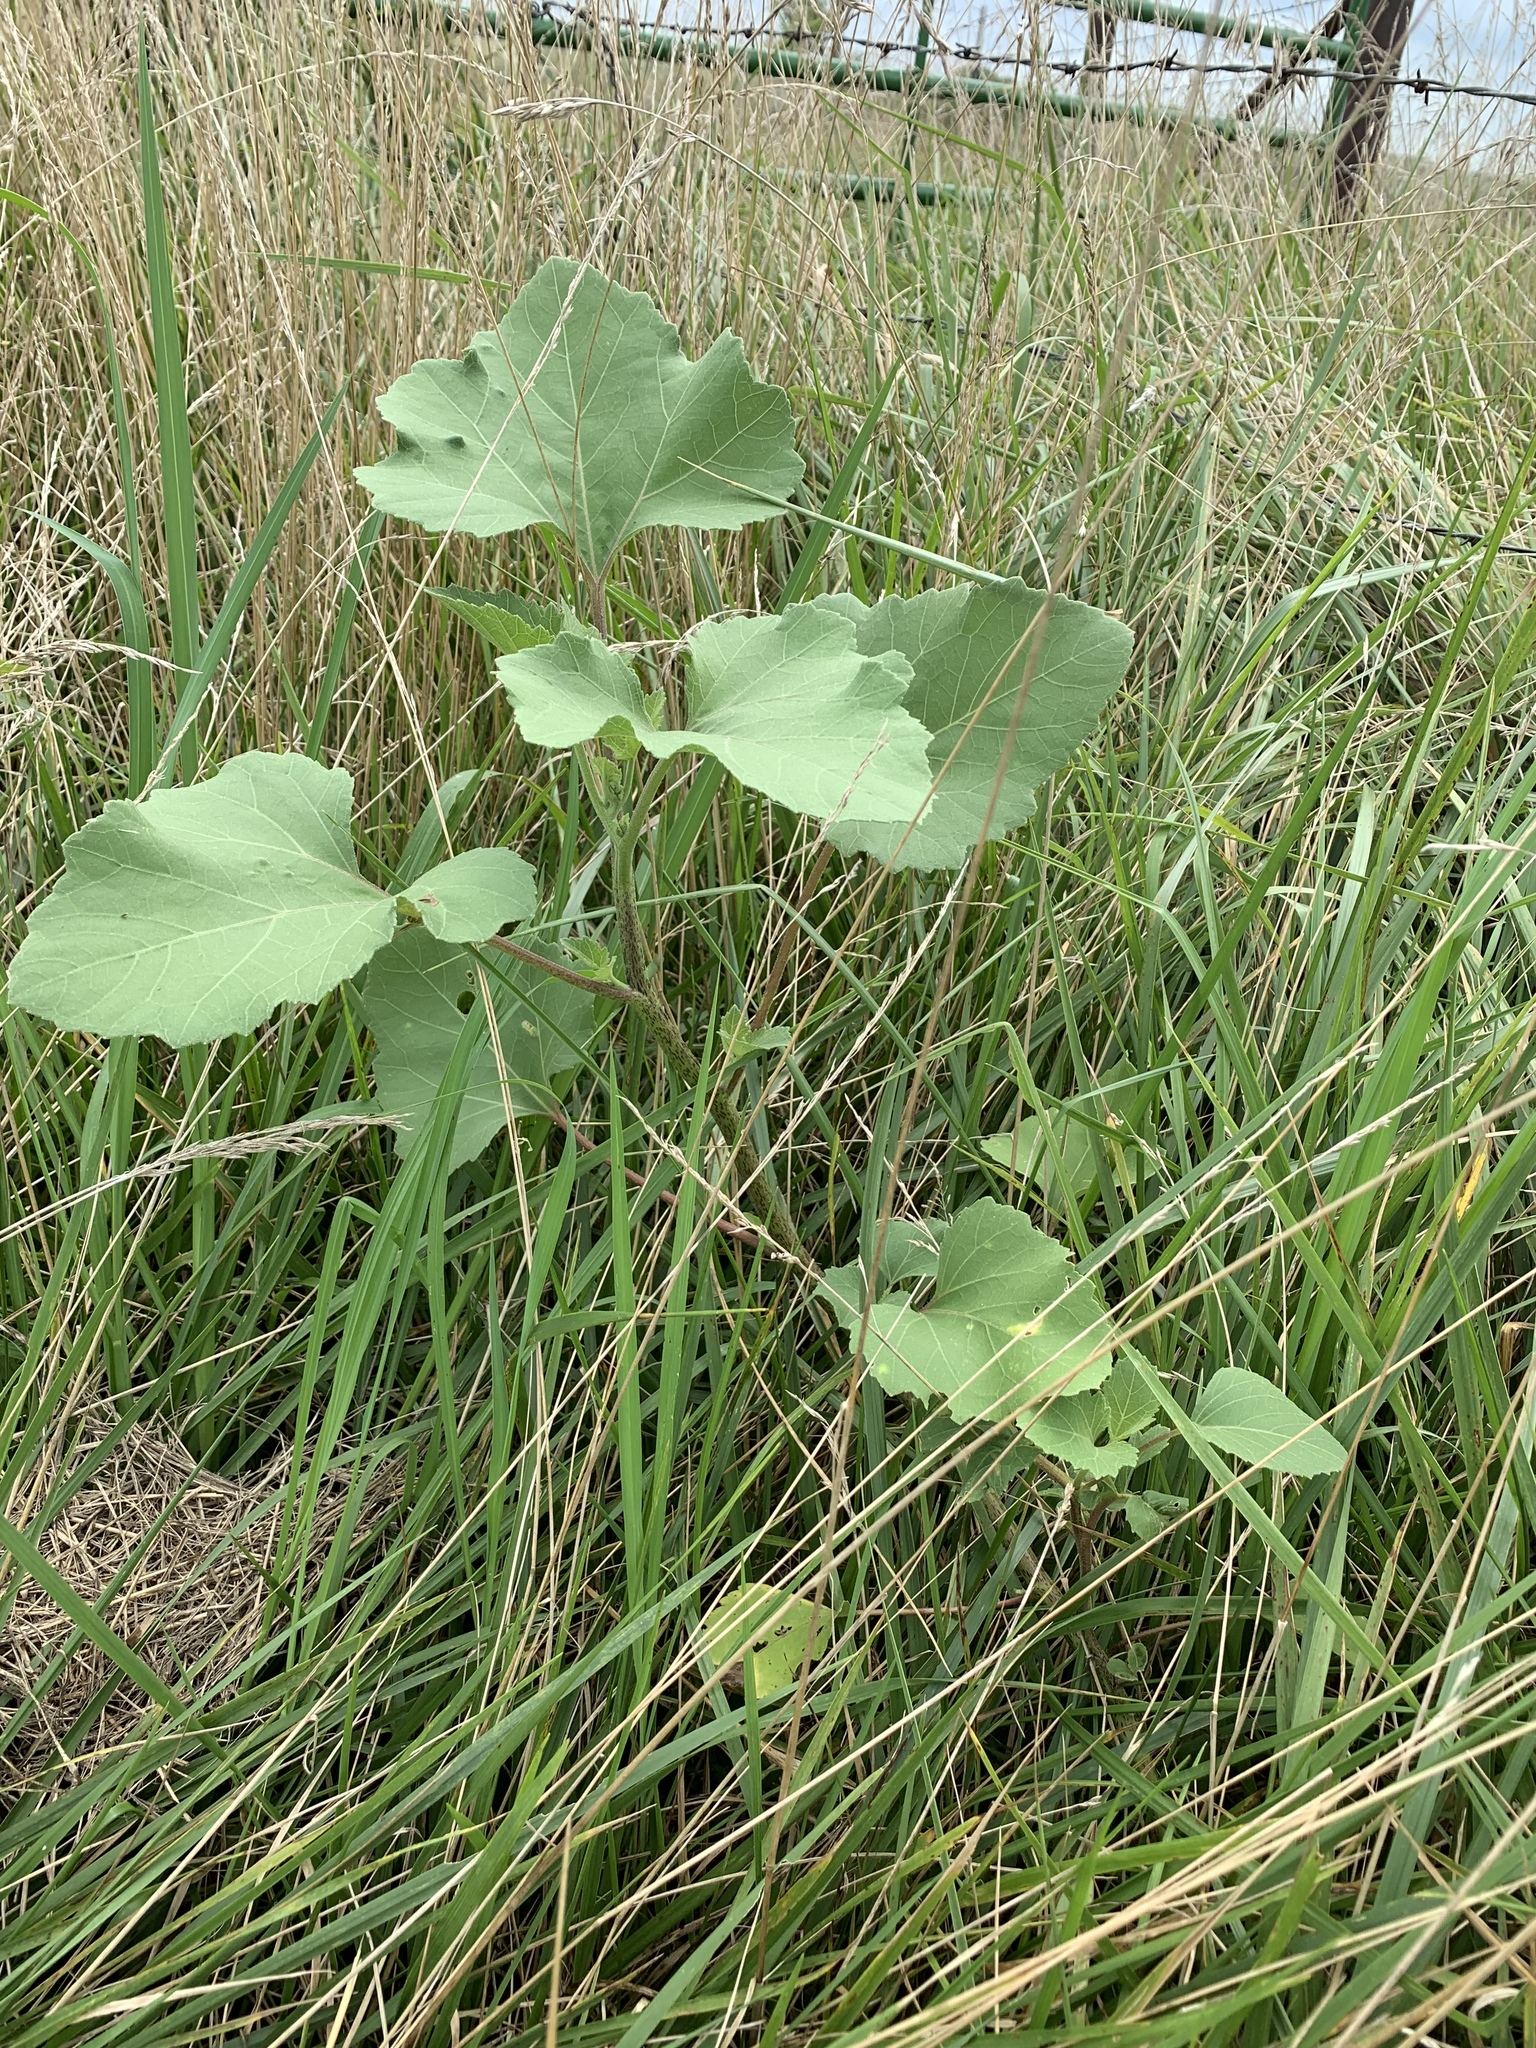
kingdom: Plantae
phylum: Tracheophyta
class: Magnoliopsida
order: Asterales
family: Asteraceae
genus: Xanthium
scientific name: Xanthium strumarium
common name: Rough cocklebur
